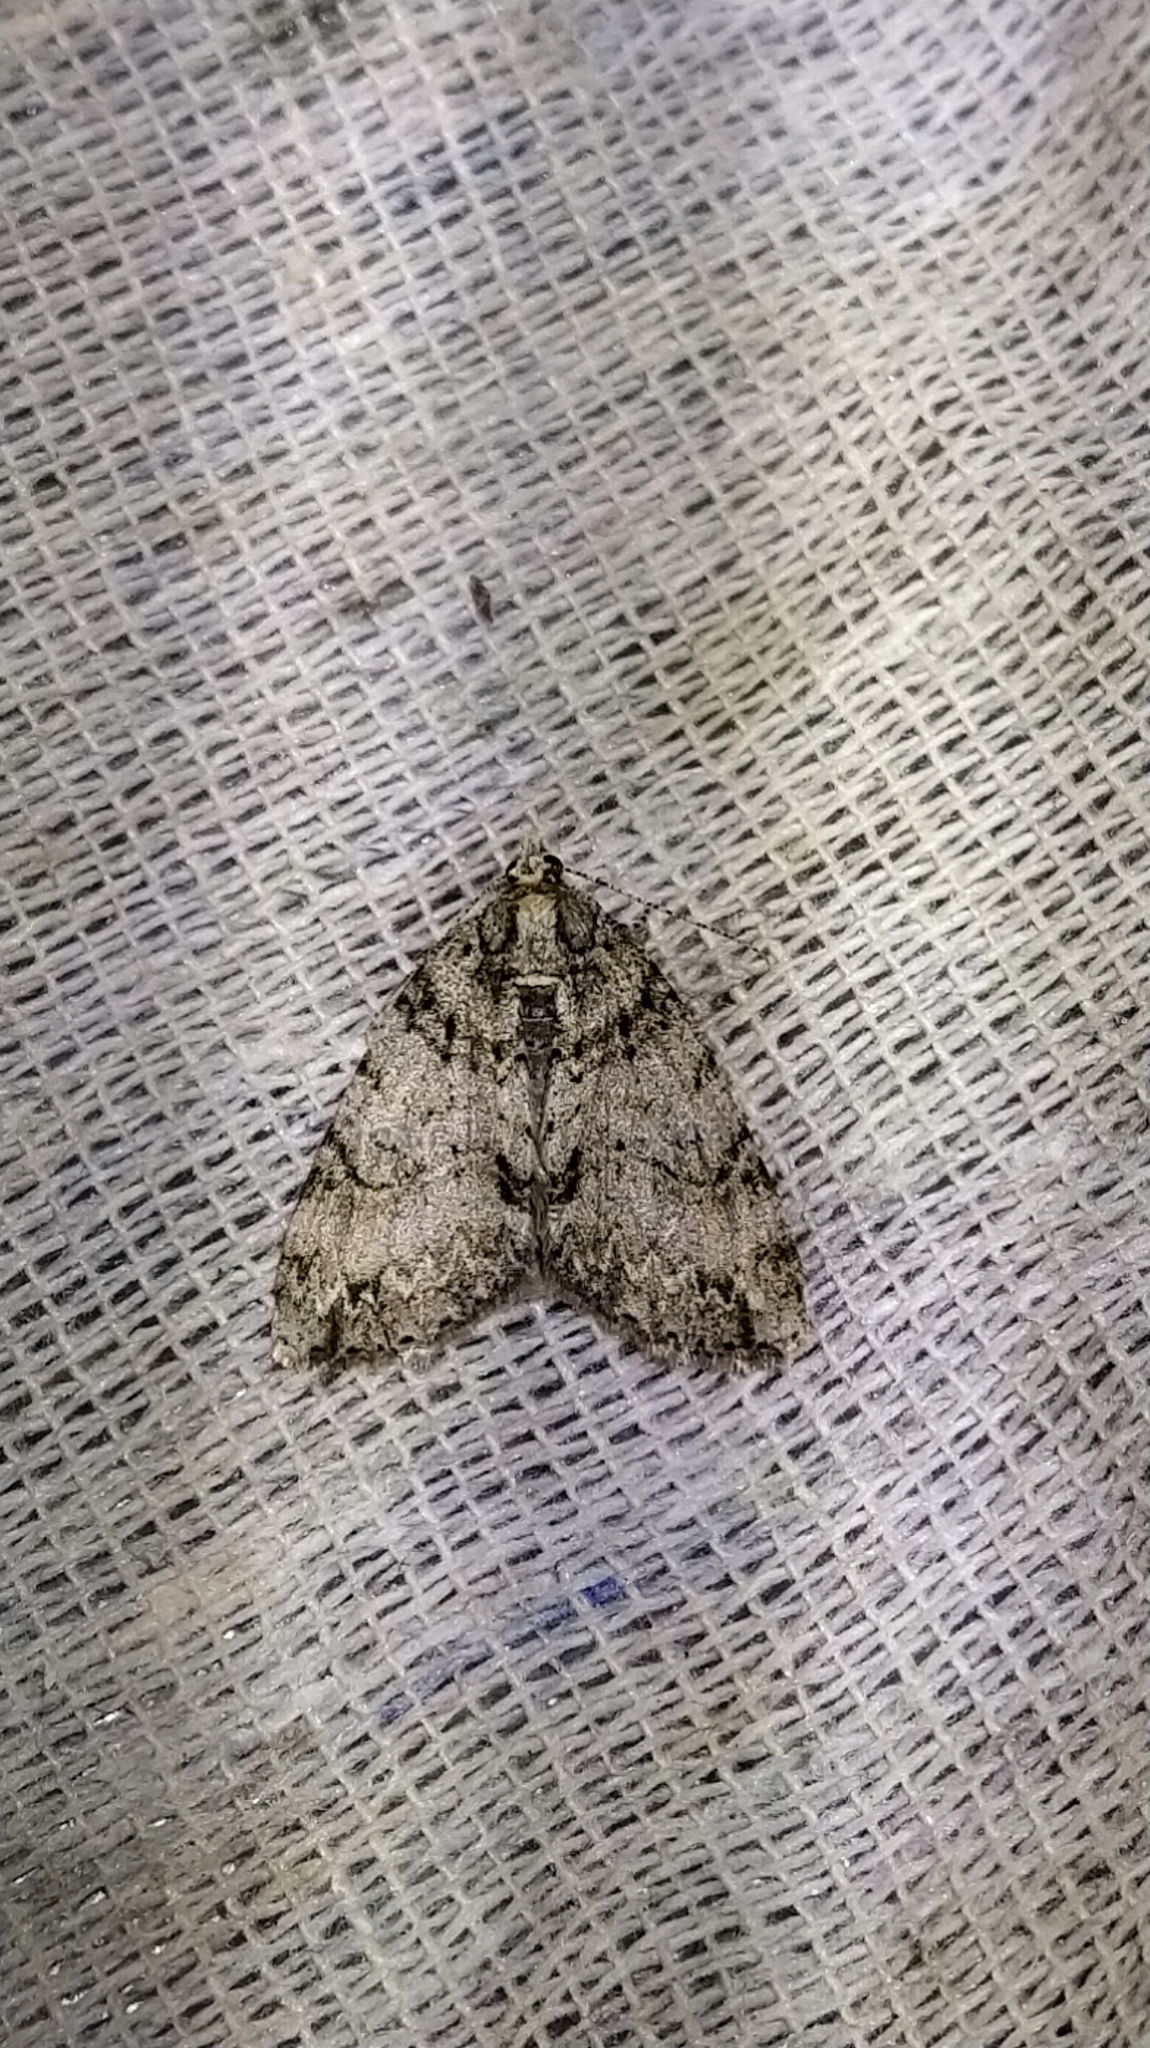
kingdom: Animalia
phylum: Arthropoda
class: Insecta
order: Lepidoptera
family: Geometridae
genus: Pseudocoremia
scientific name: Pseudocoremia suavis
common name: Common forest looper
